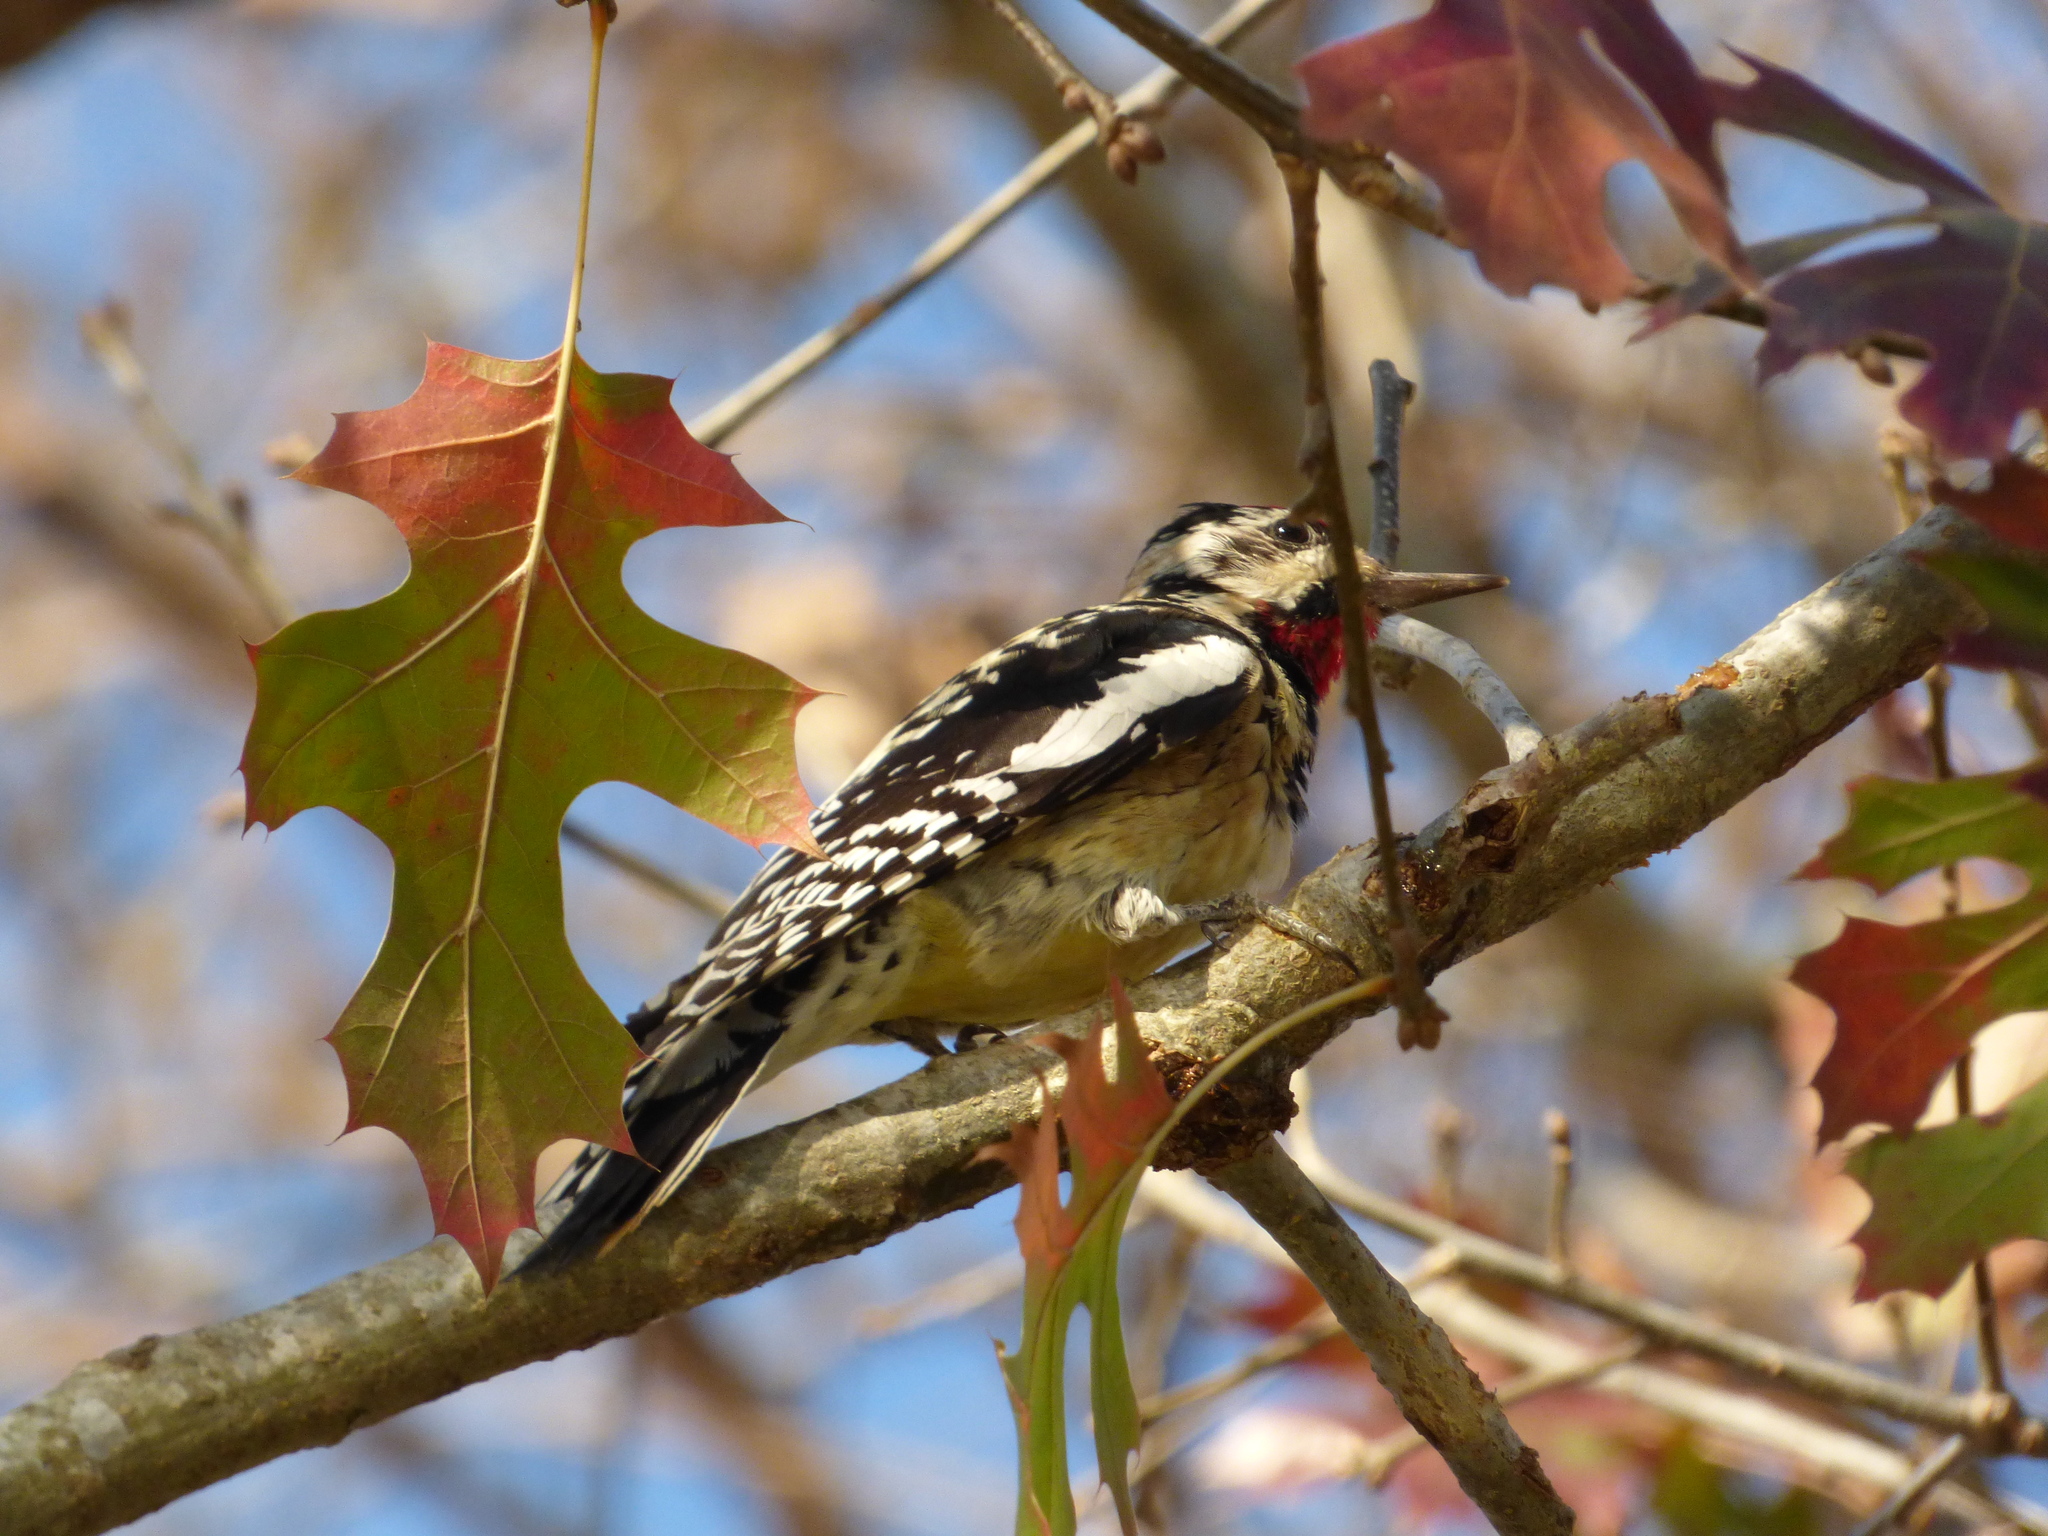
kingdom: Animalia
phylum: Chordata
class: Aves
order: Piciformes
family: Picidae
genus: Sphyrapicus
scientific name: Sphyrapicus varius
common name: Yellow-bellied sapsucker
